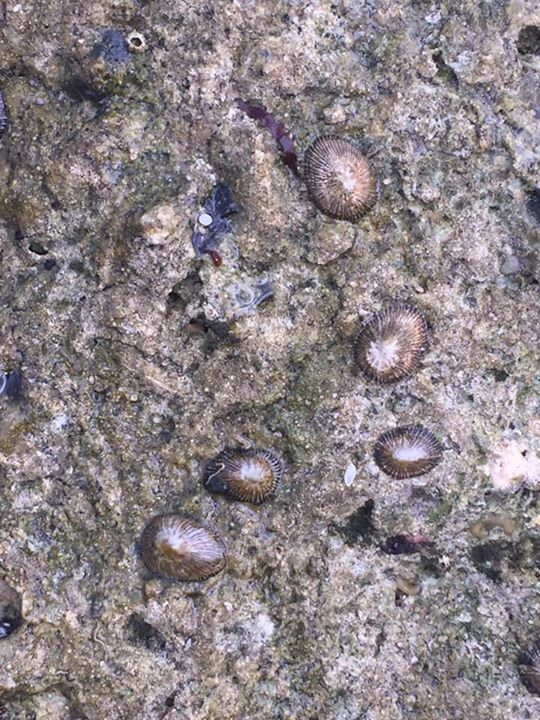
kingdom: Animalia
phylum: Mollusca
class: Gastropoda
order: Siphonariida
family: Siphonariidae
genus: Siphonaria
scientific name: Siphonaria naufragum
